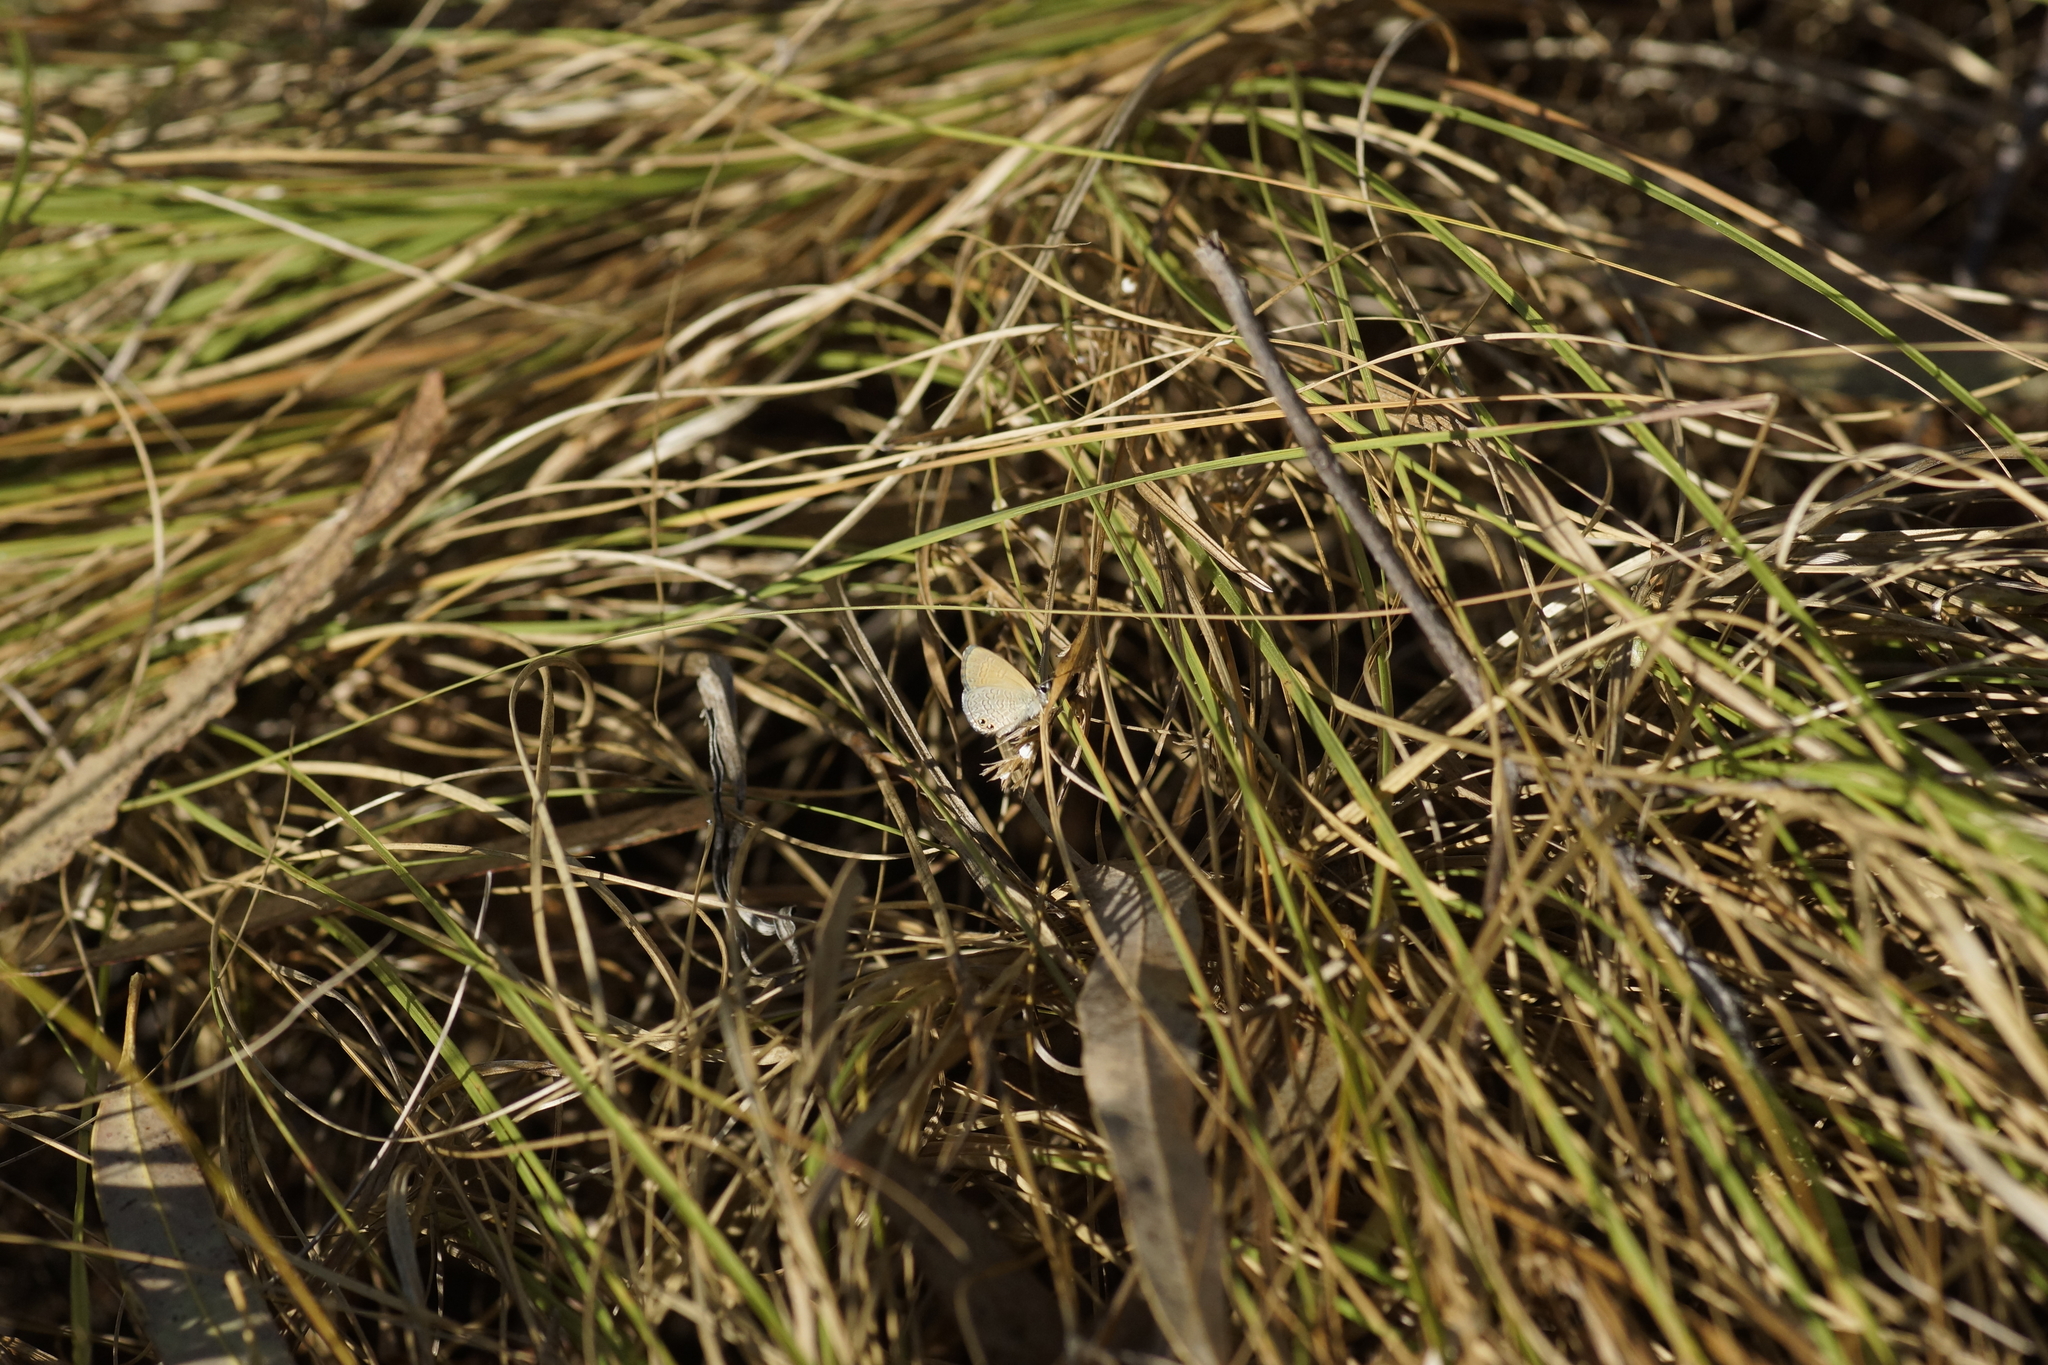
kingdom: Animalia
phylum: Arthropoda
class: Insecta
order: Lepidoptera
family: Lycaenidae
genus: Nacaduba
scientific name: Nacaduba biocellata
